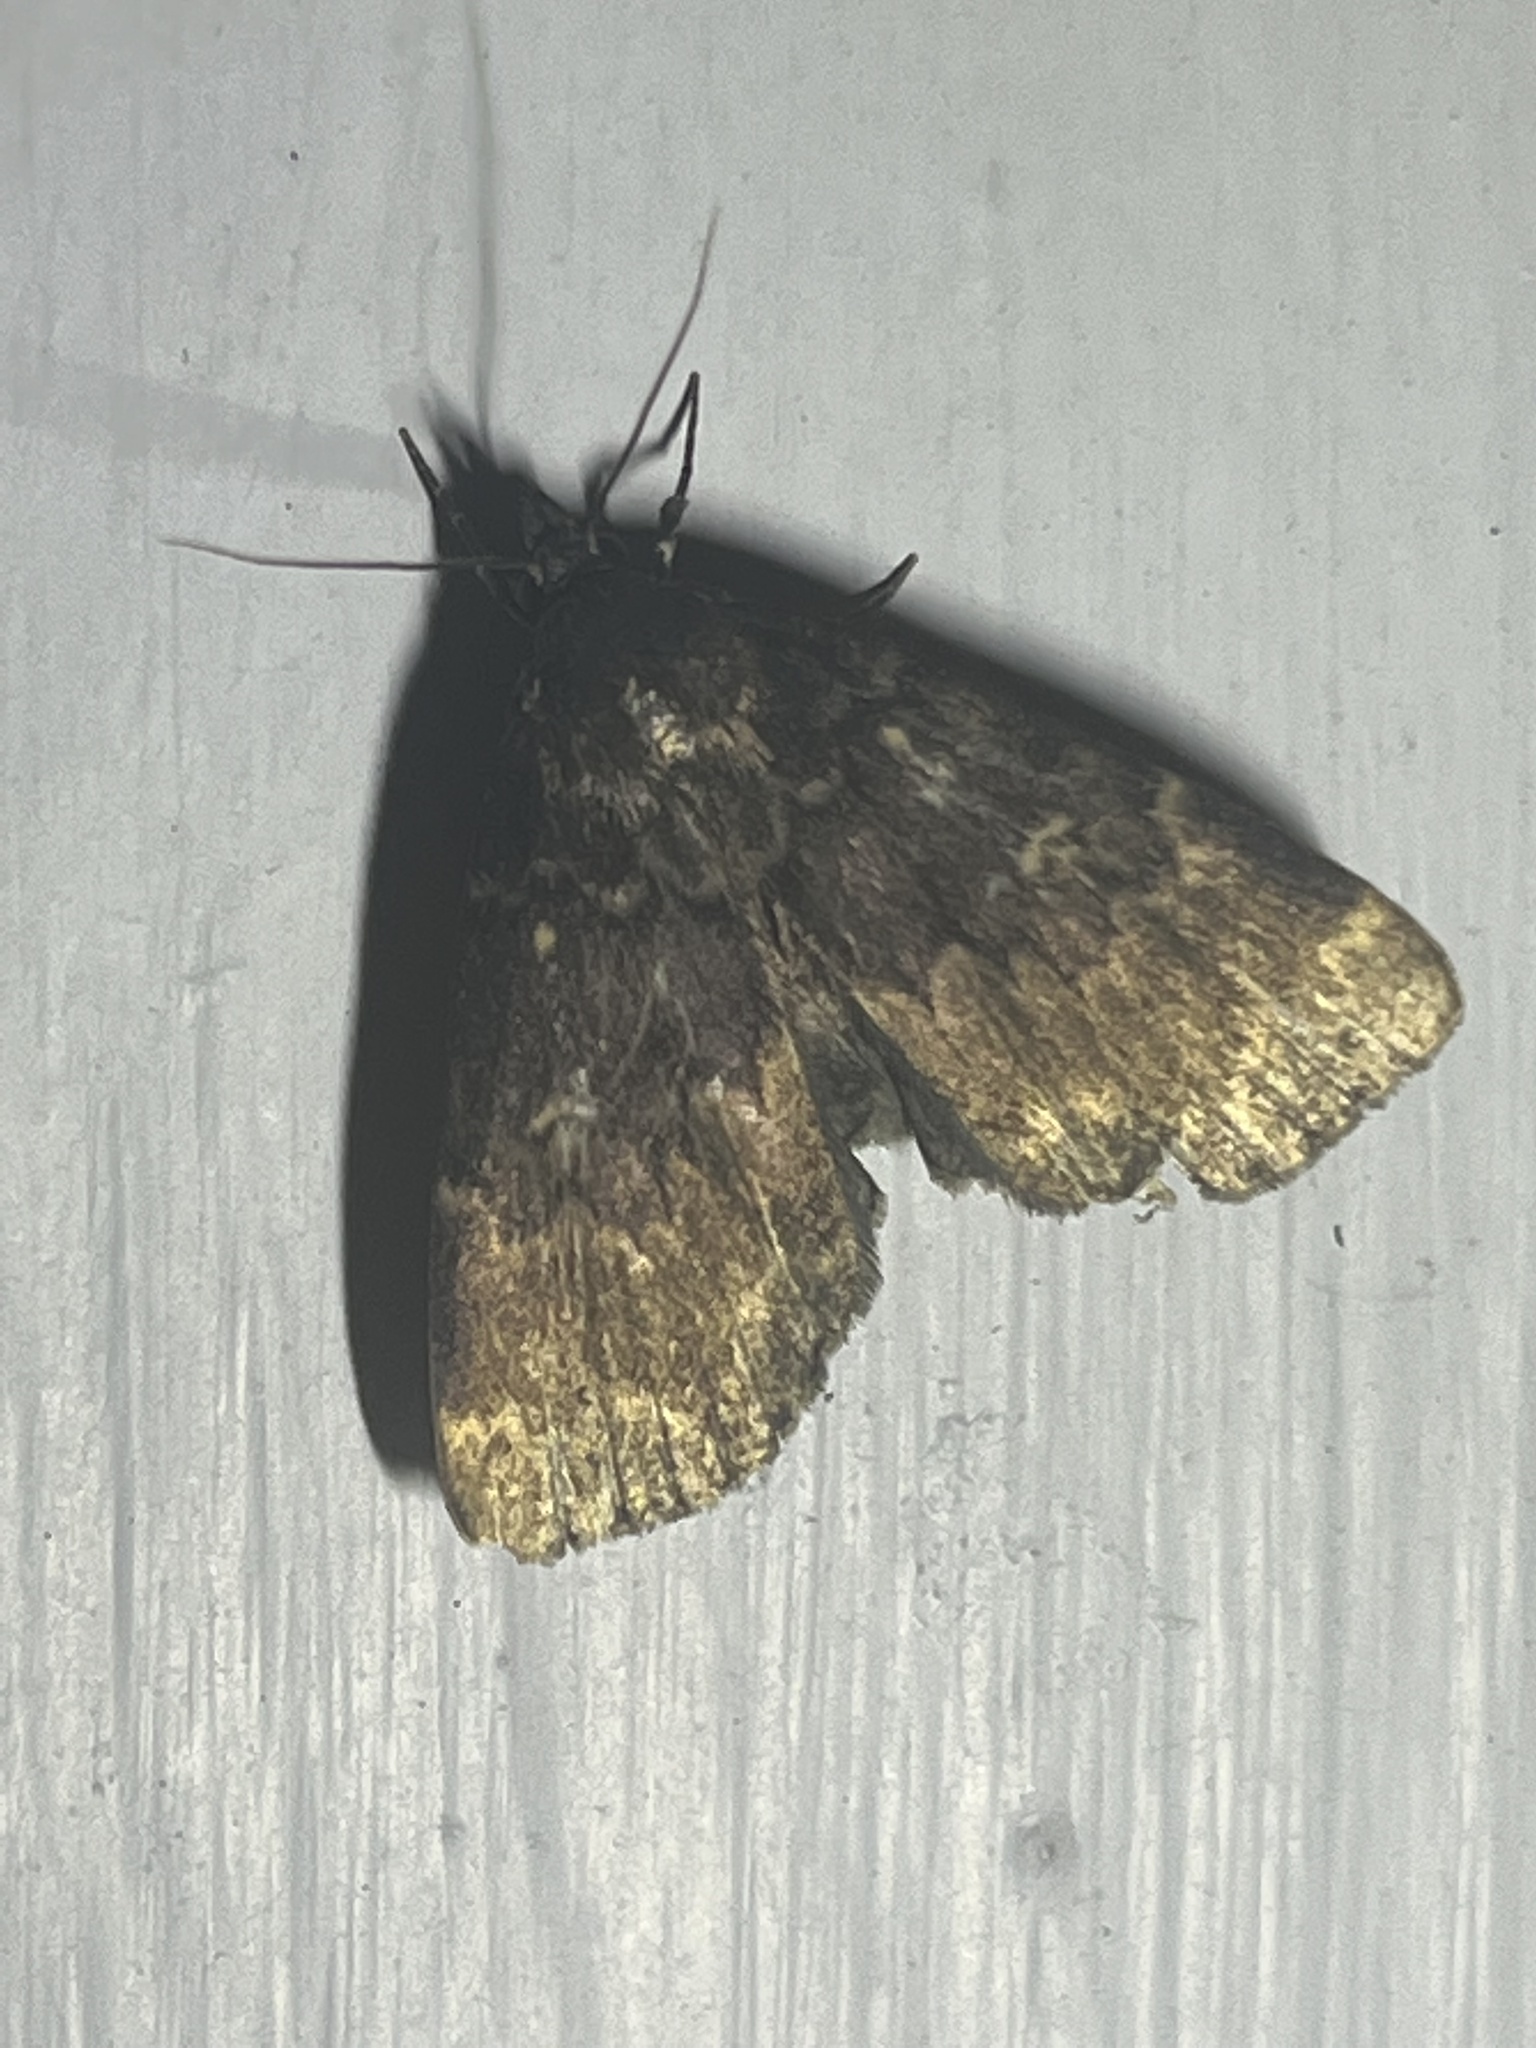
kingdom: Animalia
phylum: Arthropoda
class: Insecta
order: Lepidoptera
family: Erebidae
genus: Idia
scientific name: Idia lubricalis
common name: Twin-striped tabby
